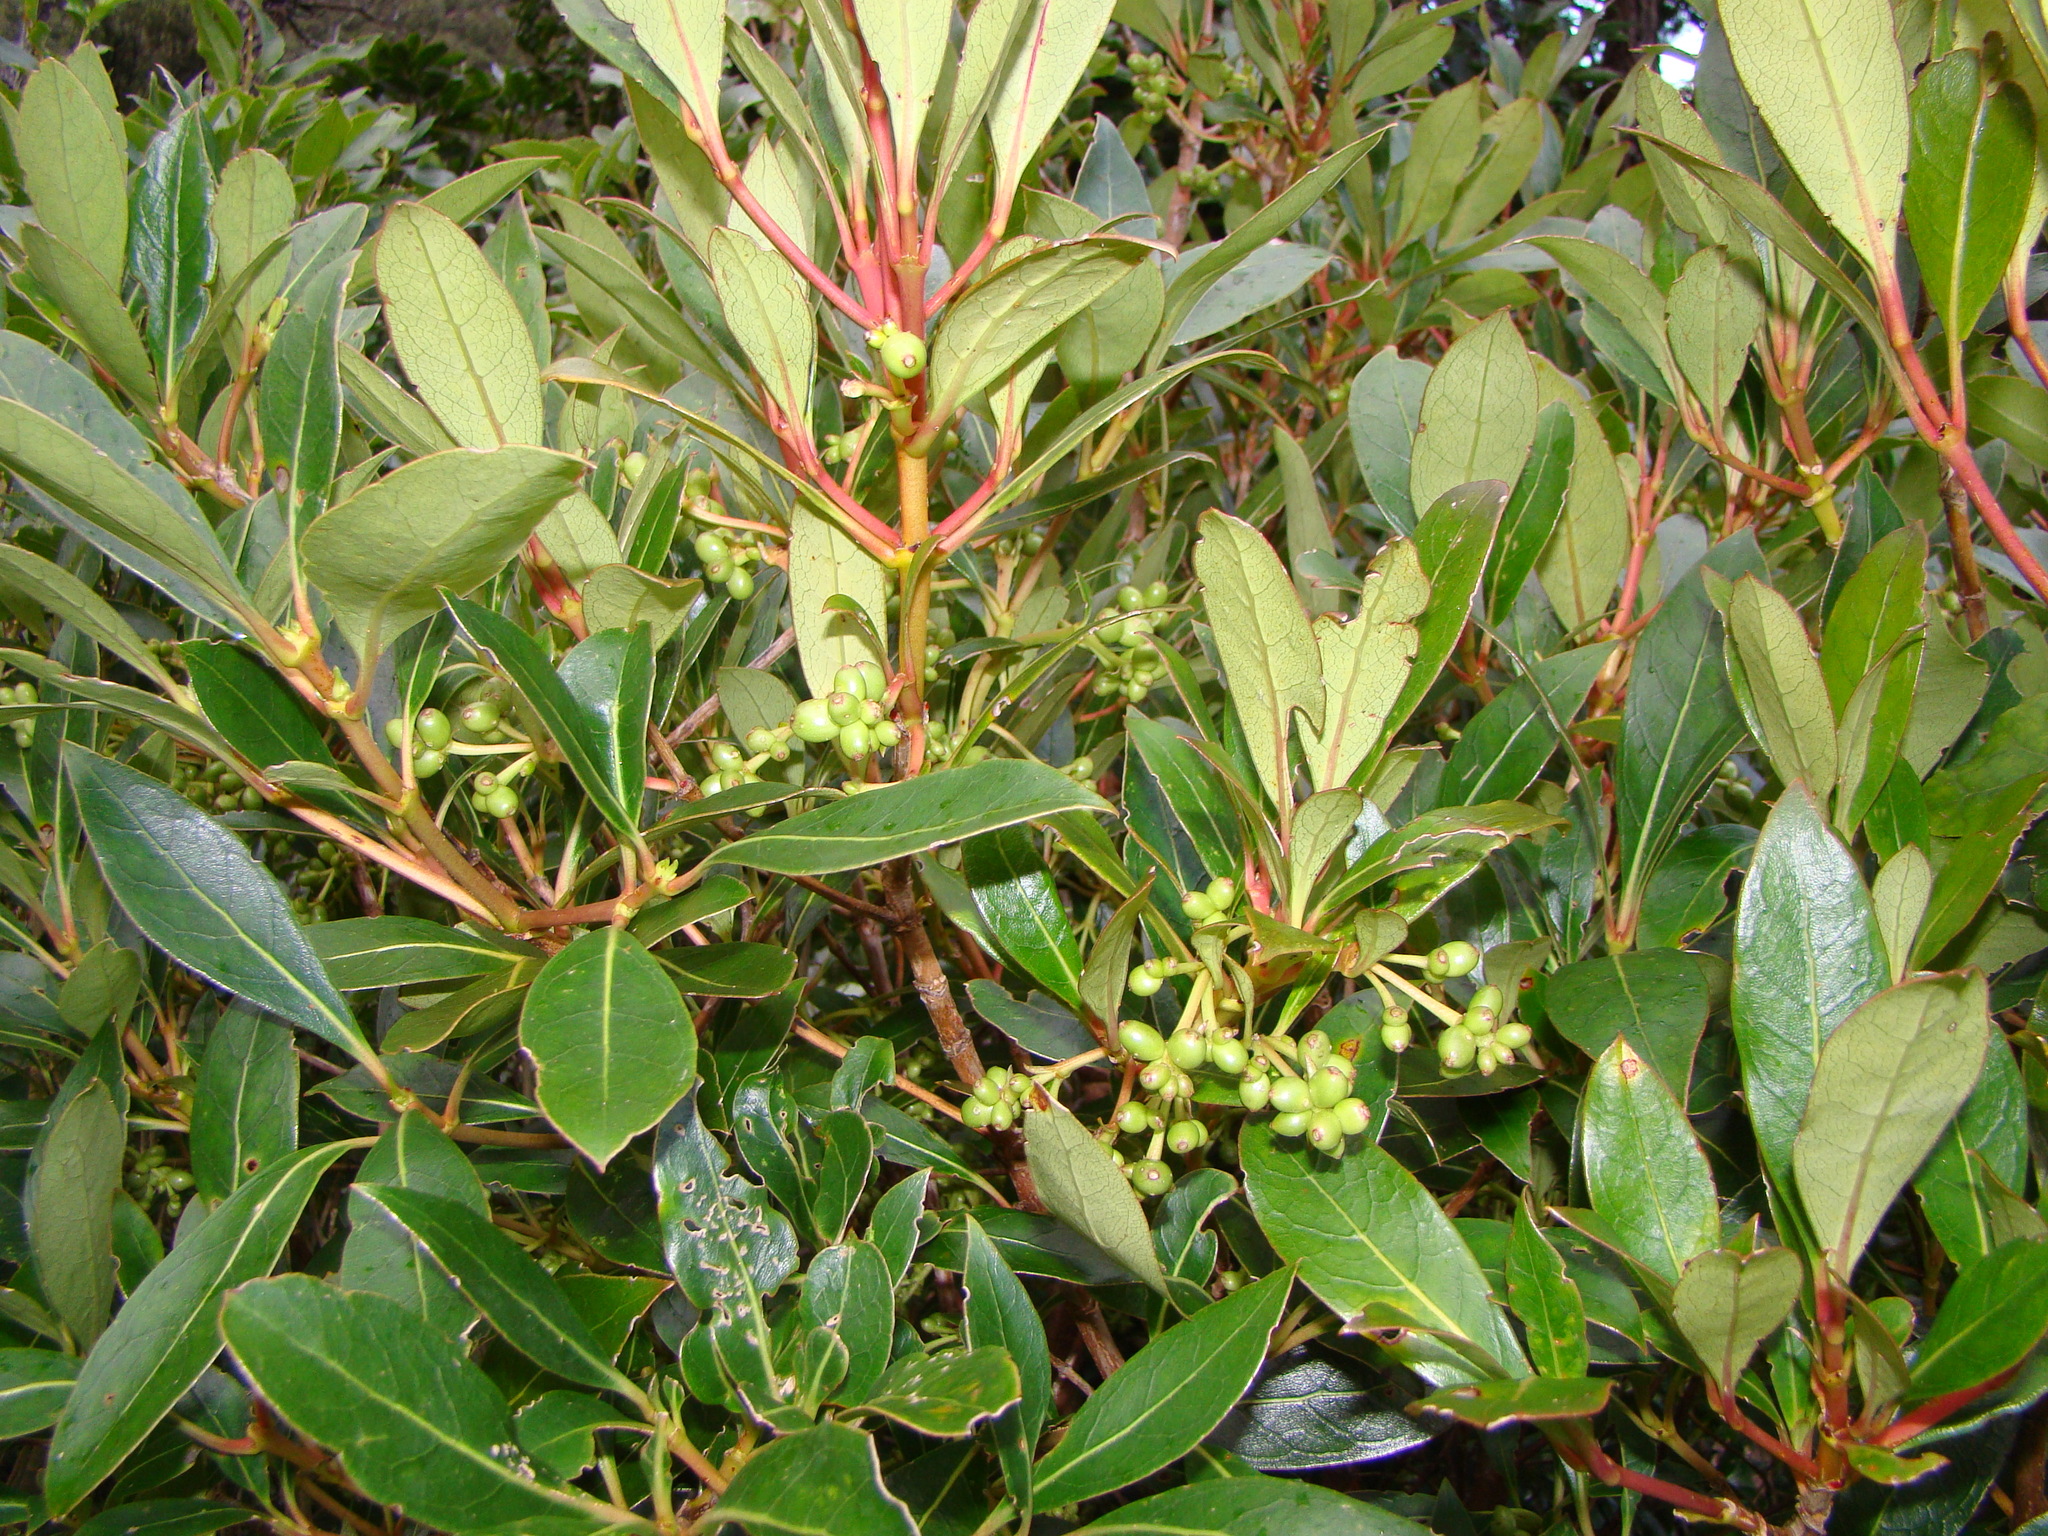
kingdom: Plantae
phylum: Tracheophyta
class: Magnoliopsida
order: Gentianales
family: Rubiaceae
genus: Coprosma
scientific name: Coprosma lucida
